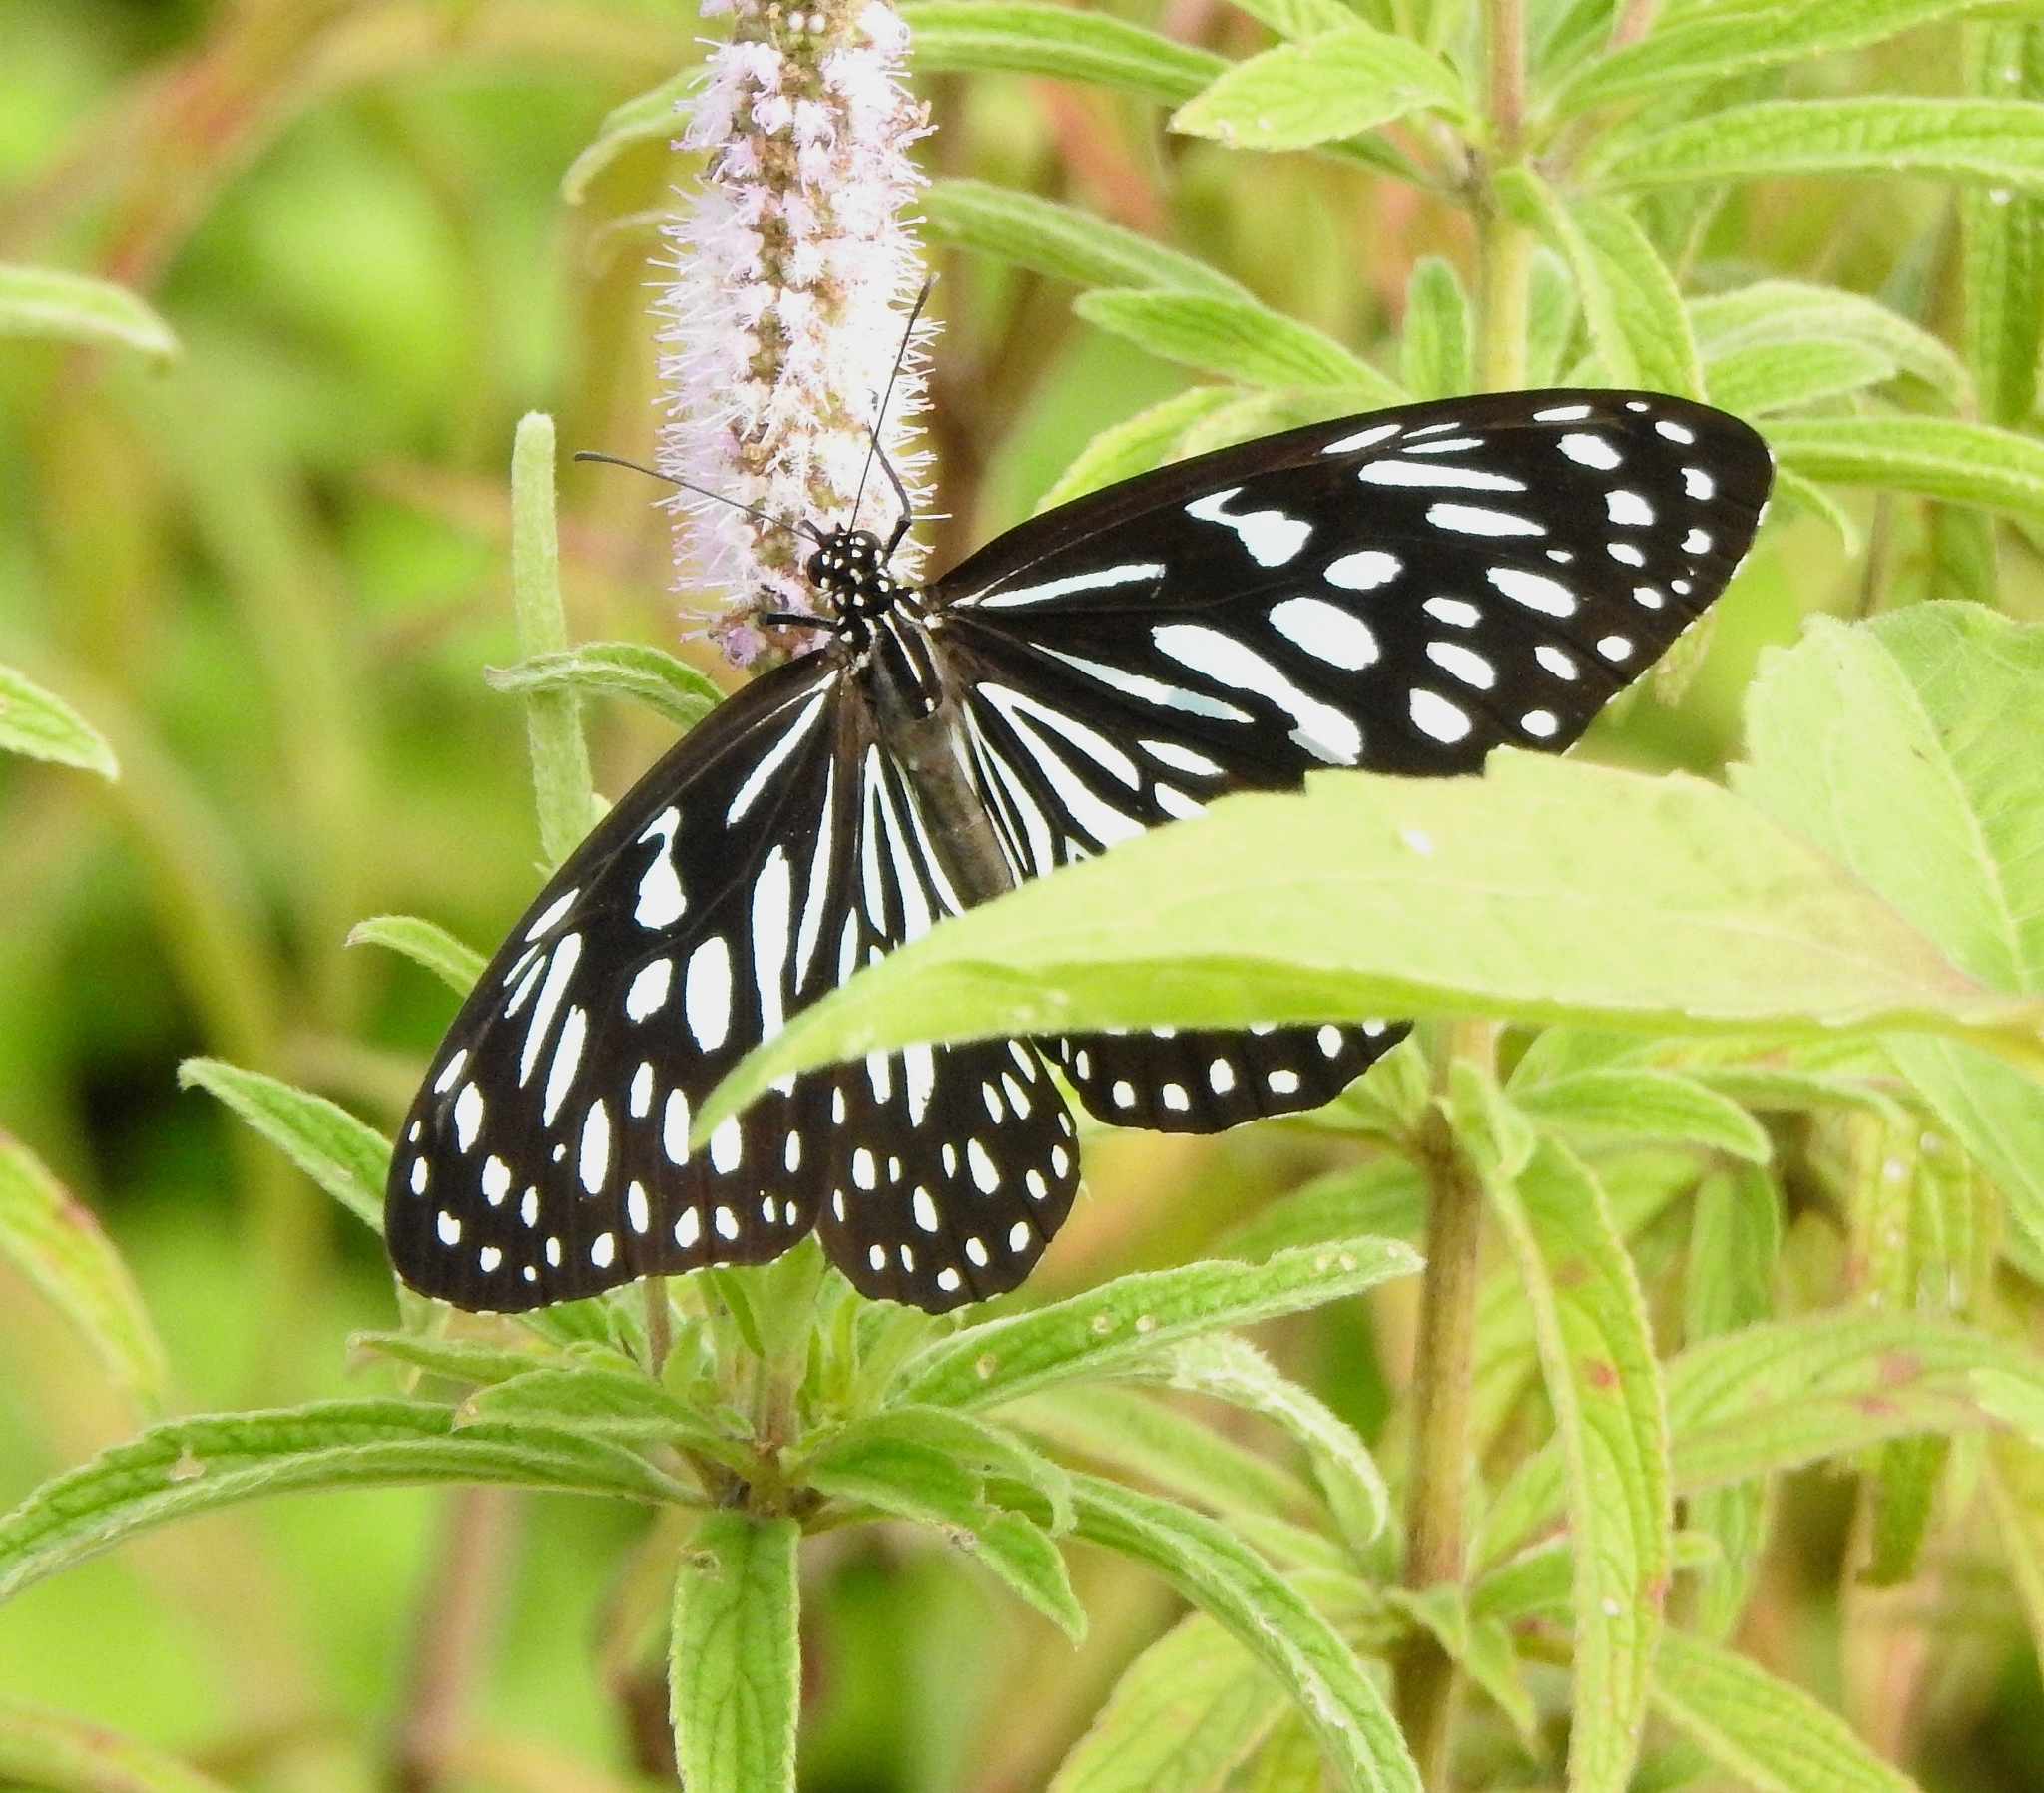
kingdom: Animalia
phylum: Arthropoda
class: Insecta
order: Lepidoptera
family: Nymphalidae
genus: Tirumala
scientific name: Tirumala septentrionis
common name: Dark blue tiger butterfly
